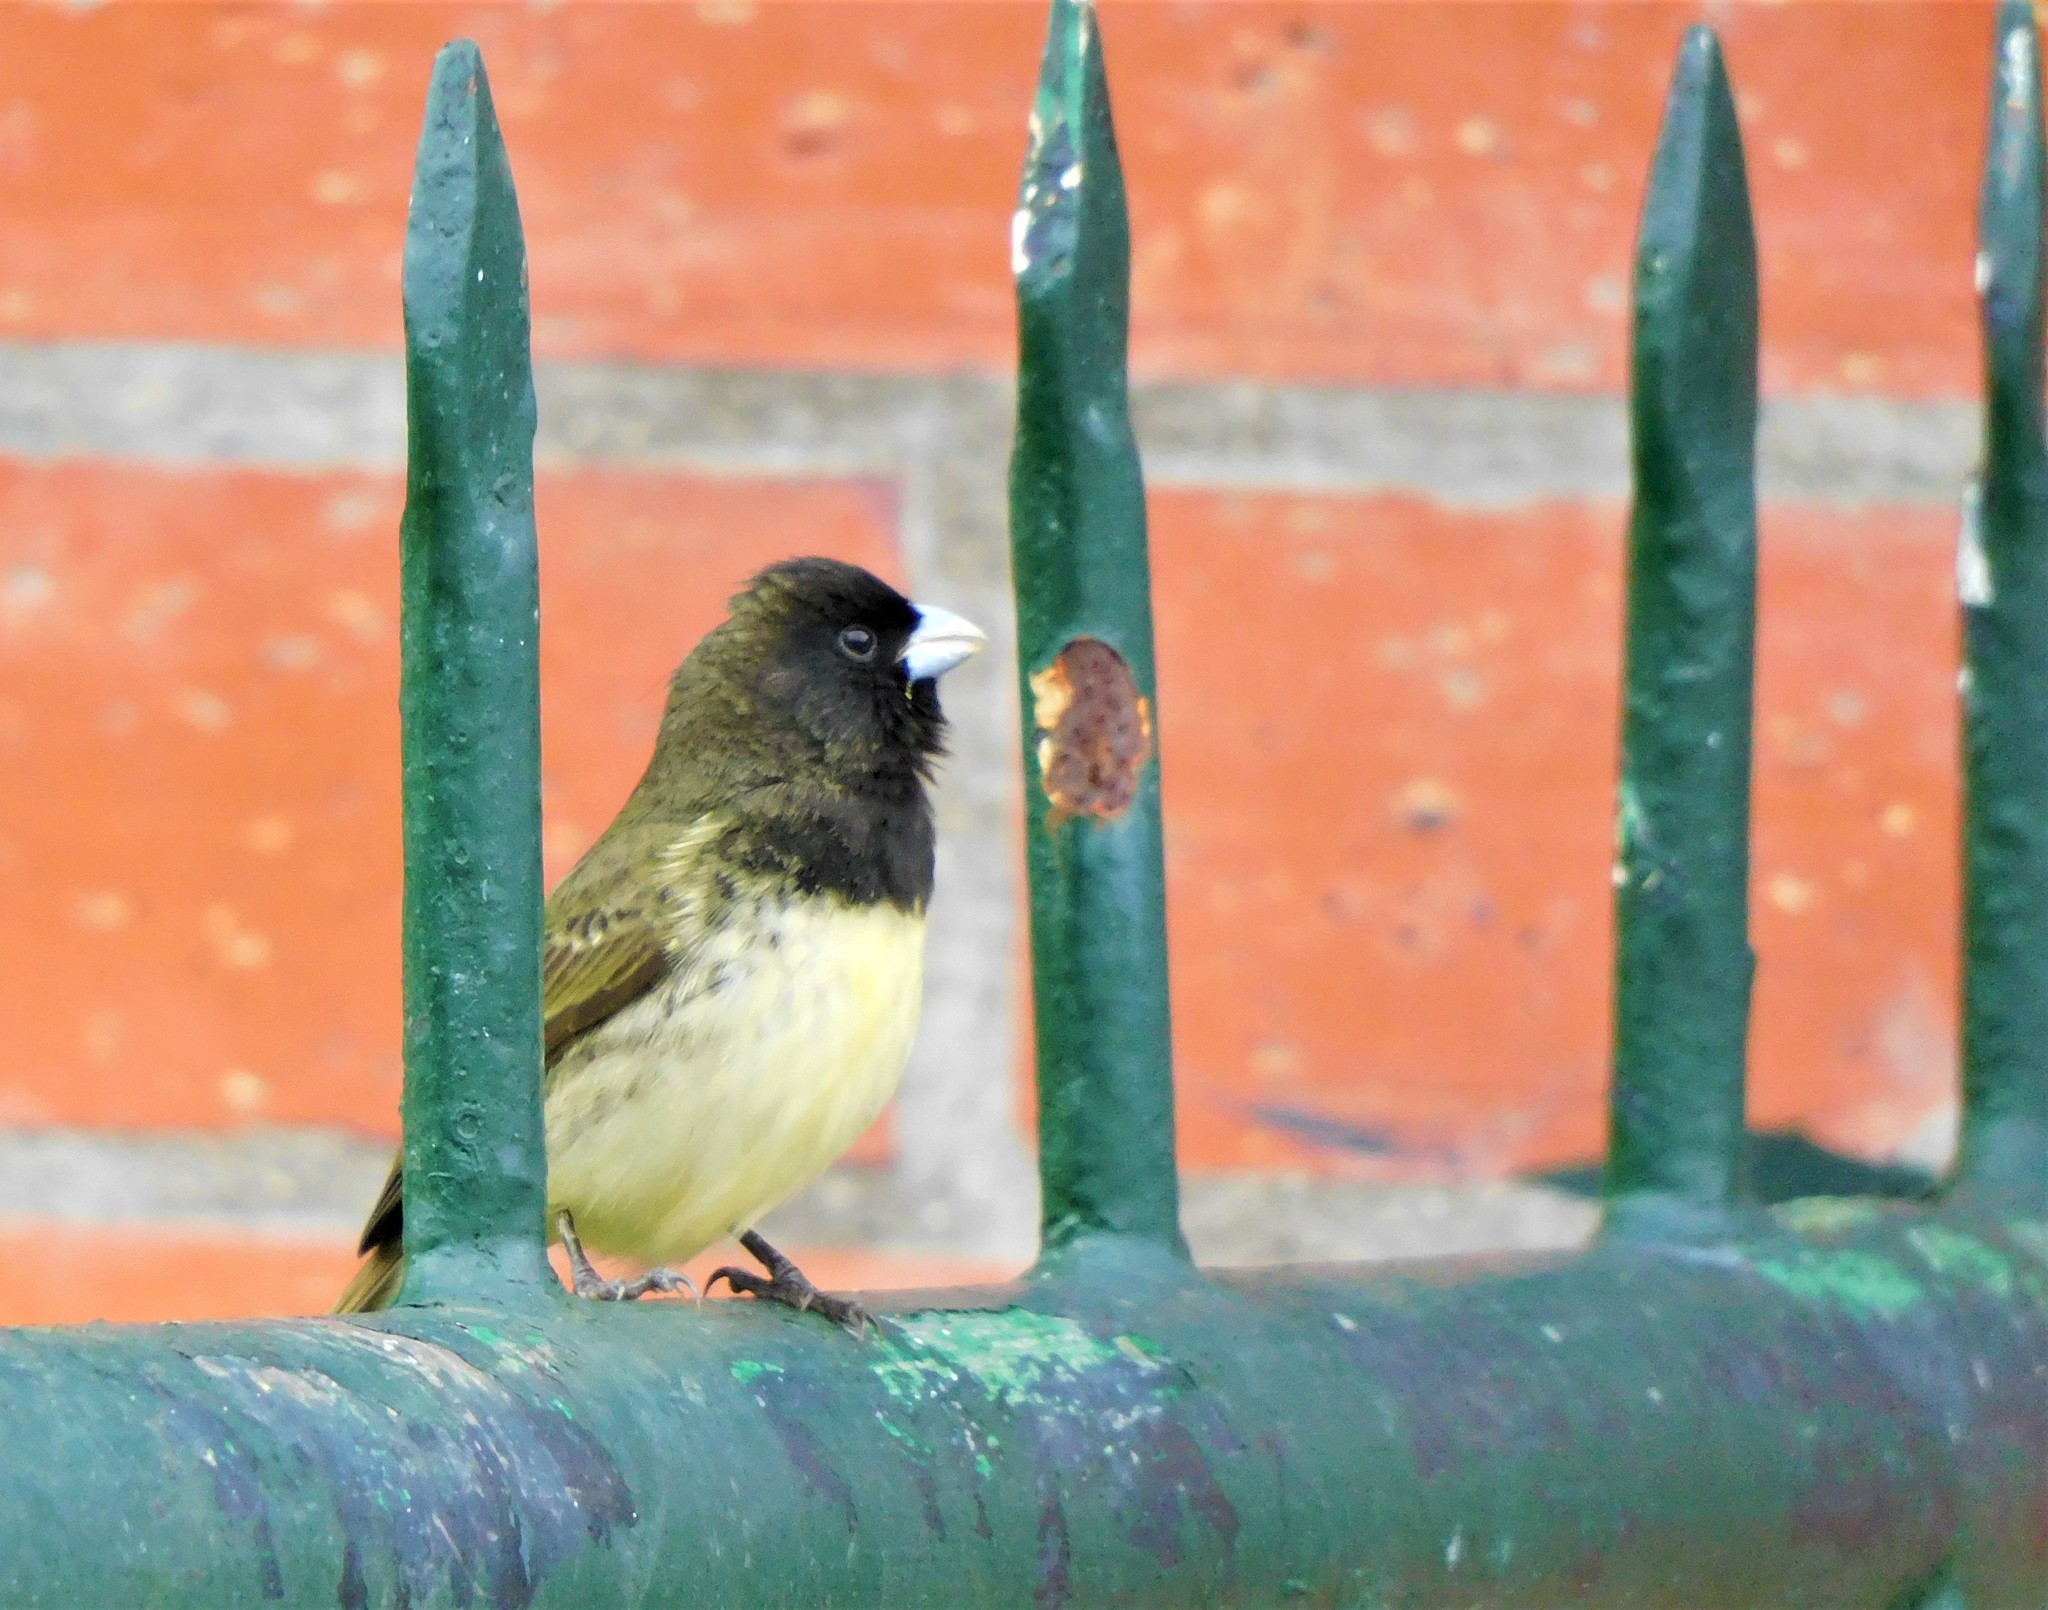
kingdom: Animalia
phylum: Chordata
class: Aves
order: Passeriformes
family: Thraupidae
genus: Sporophila
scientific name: Sporophila nigricollis
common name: Yellow-bellied seedeater
